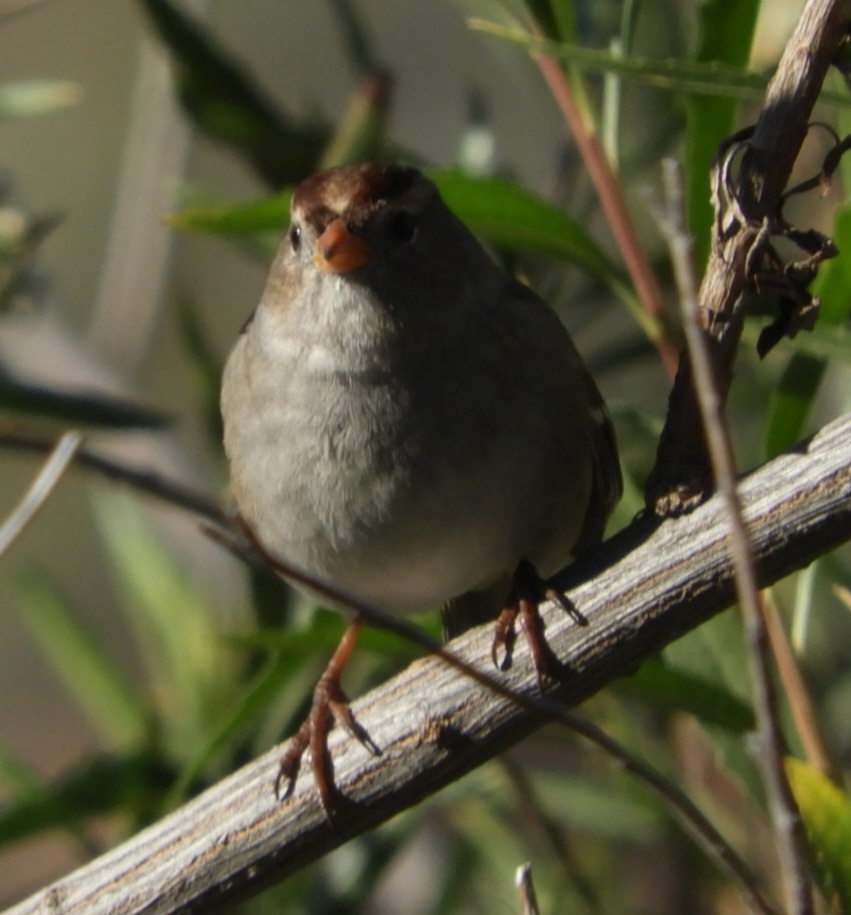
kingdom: Animalia
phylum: Chordata
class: Aves
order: Passeriformes
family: Passerellidae
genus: Zonotrichia
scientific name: Zonotrichia leucophrys
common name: White-crowned sparrow
